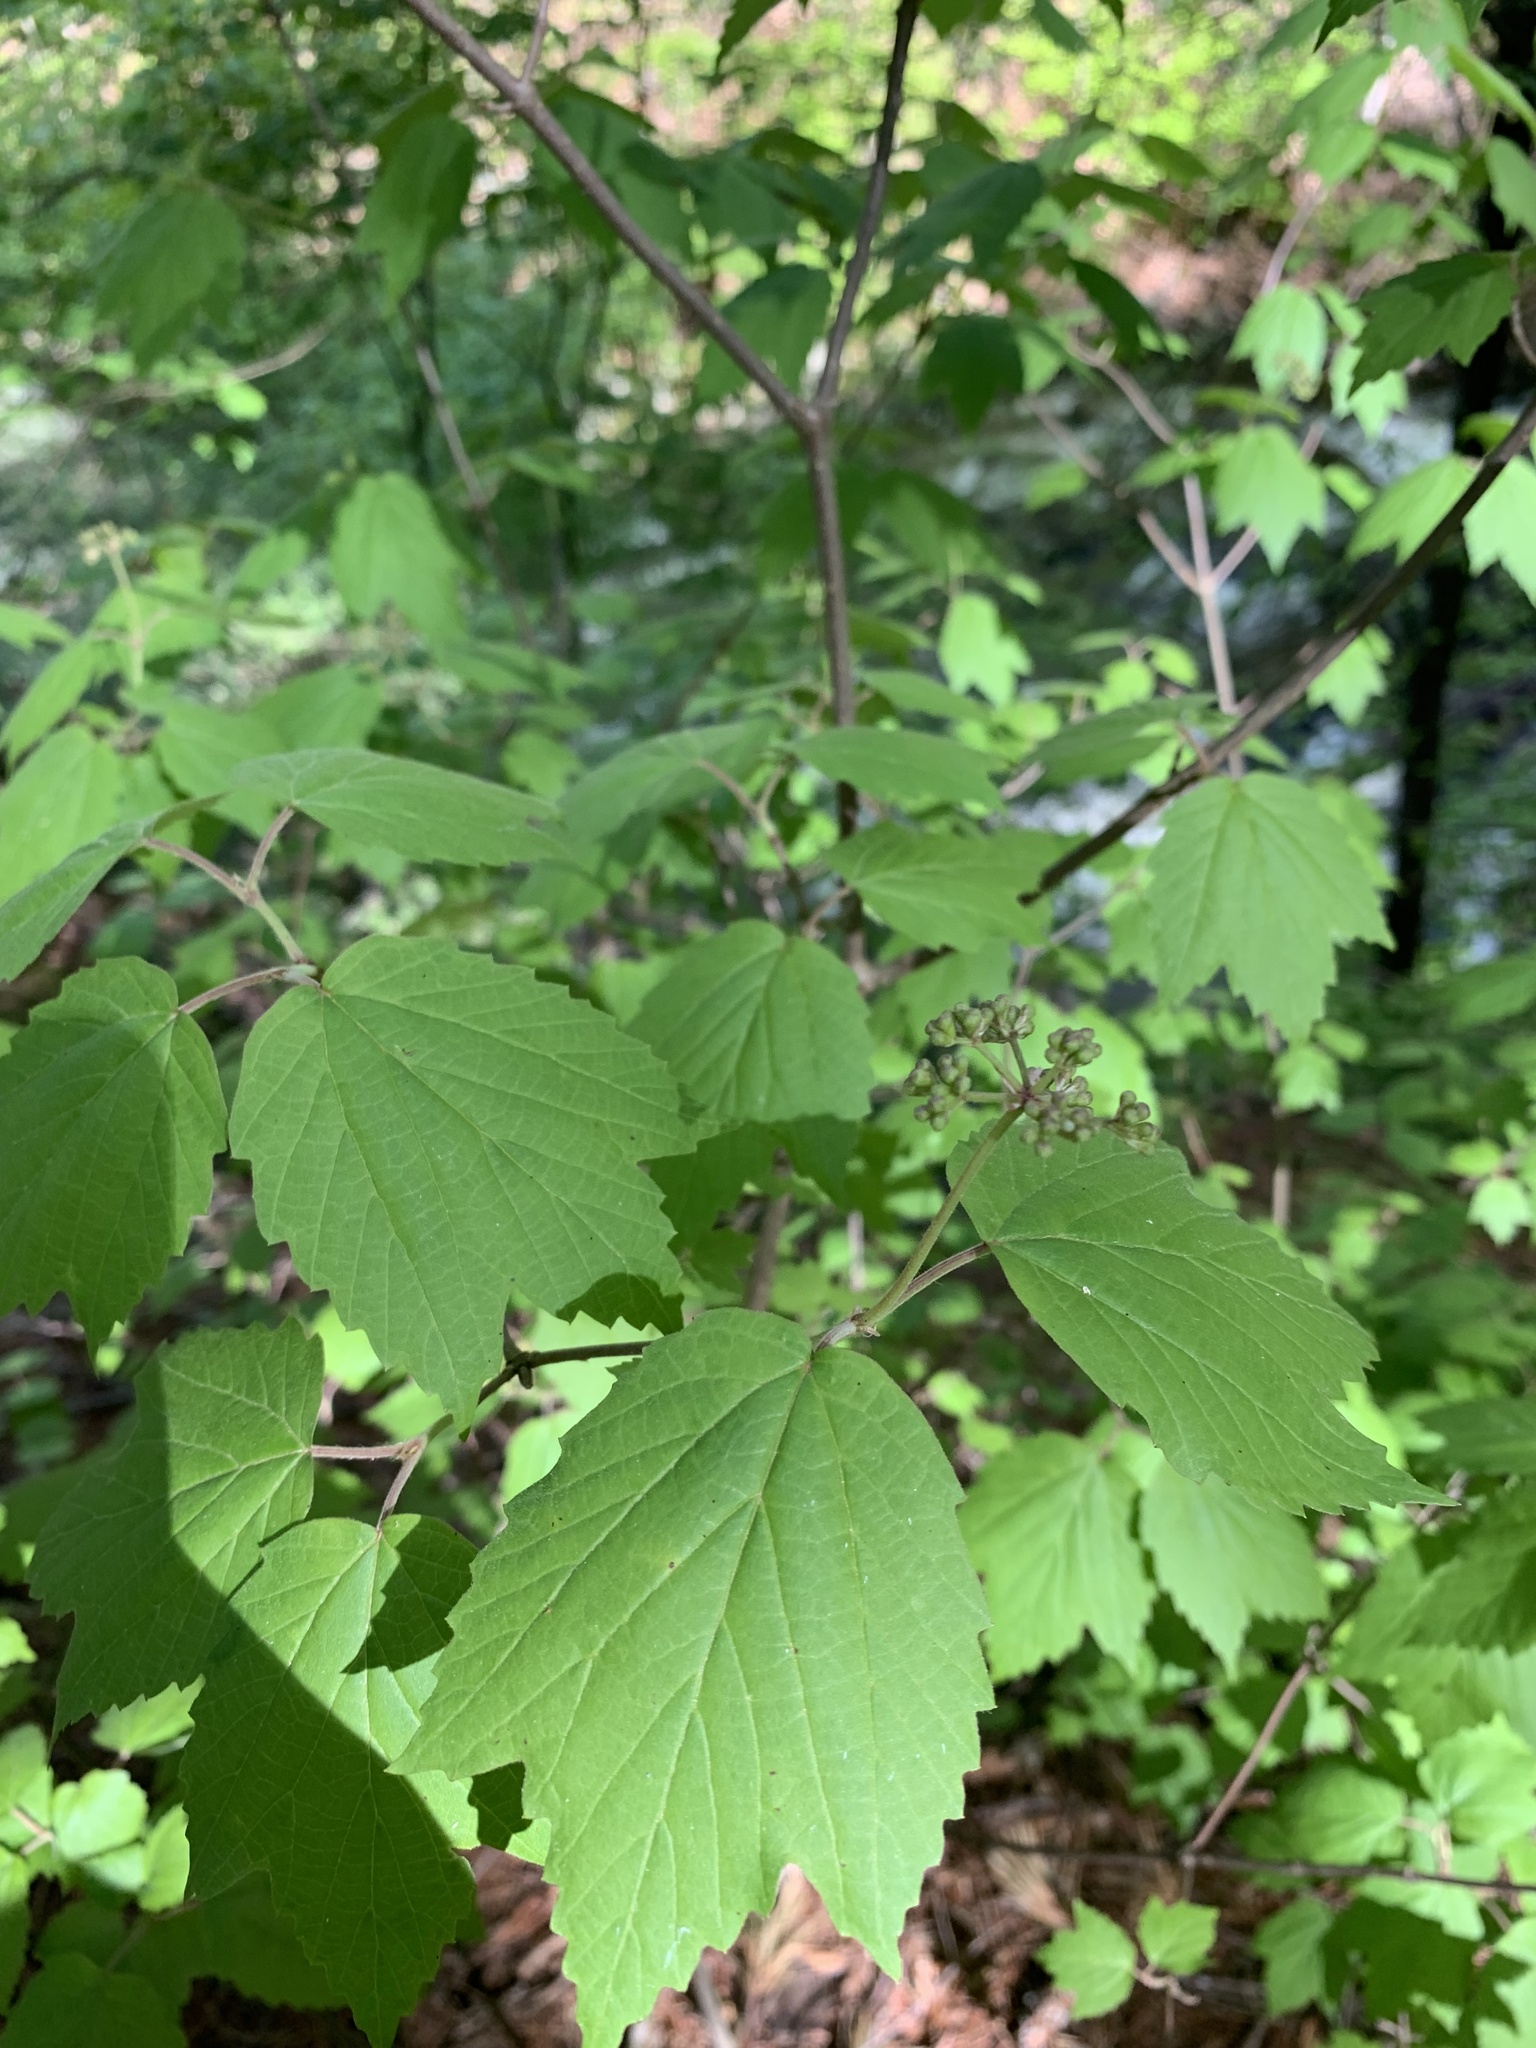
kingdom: Plantae
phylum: Tracheophyta
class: Magnoliopsida
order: Dipsacales
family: Viburnaceae
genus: Viburnum
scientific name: Viburnum acerifolium
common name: Dockmackie
